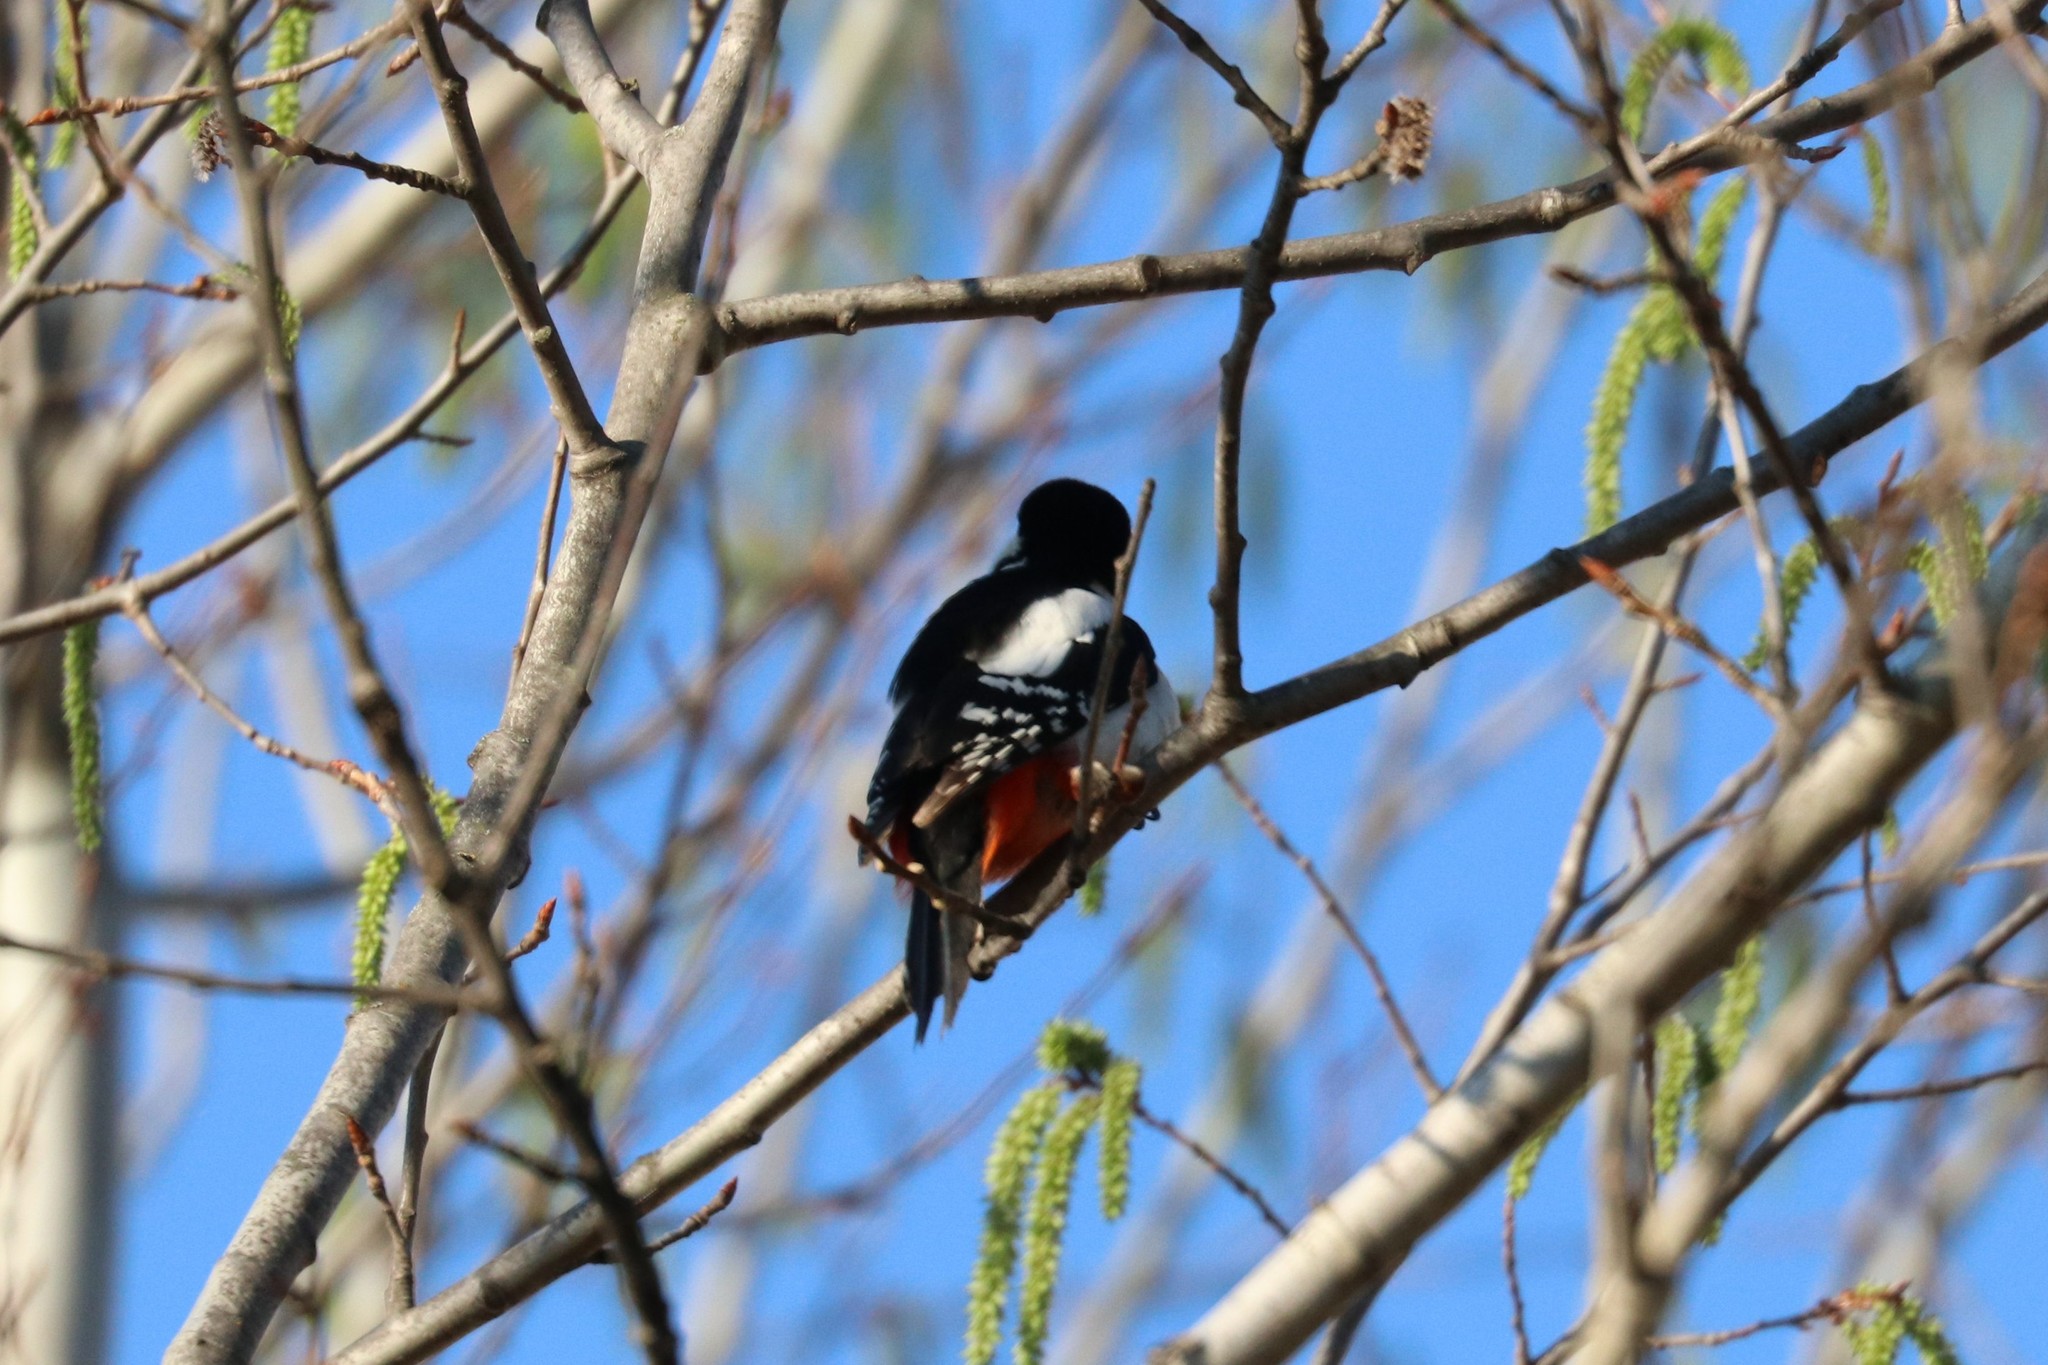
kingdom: Animalia
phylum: Chordata
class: Aves
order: Piciformes
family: Picidae
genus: Dendrocopos
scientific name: Dendrocopos major
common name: Great spotted woodpecker
